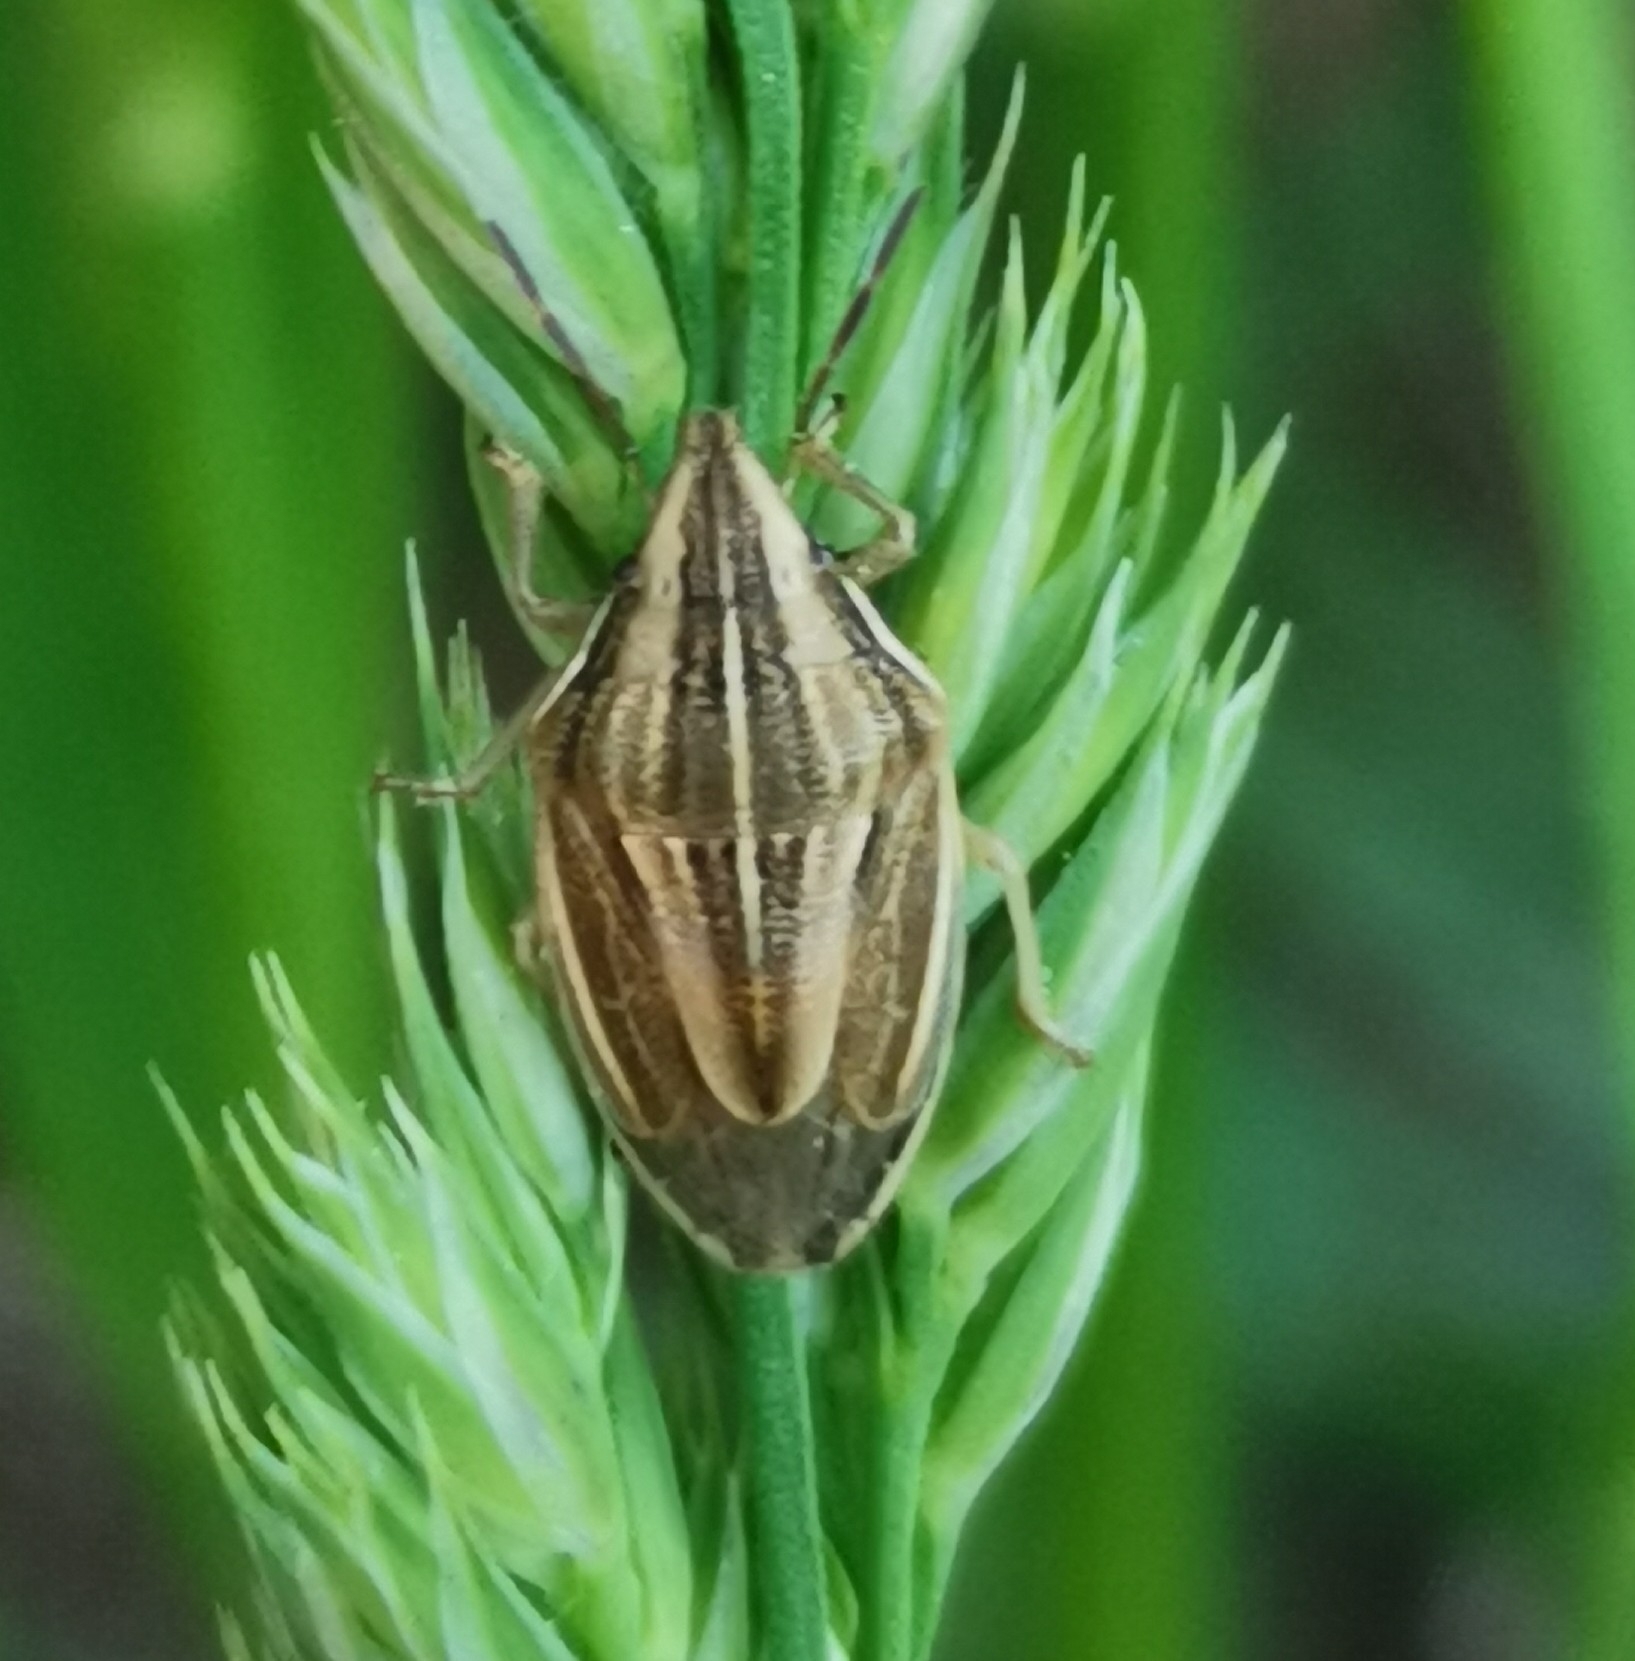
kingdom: Animalia
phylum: Arthropoda
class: Insecta
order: Hemiptera
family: Pentatomidae
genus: Aelia
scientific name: Aelia acuminata
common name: Bishop's mitre
